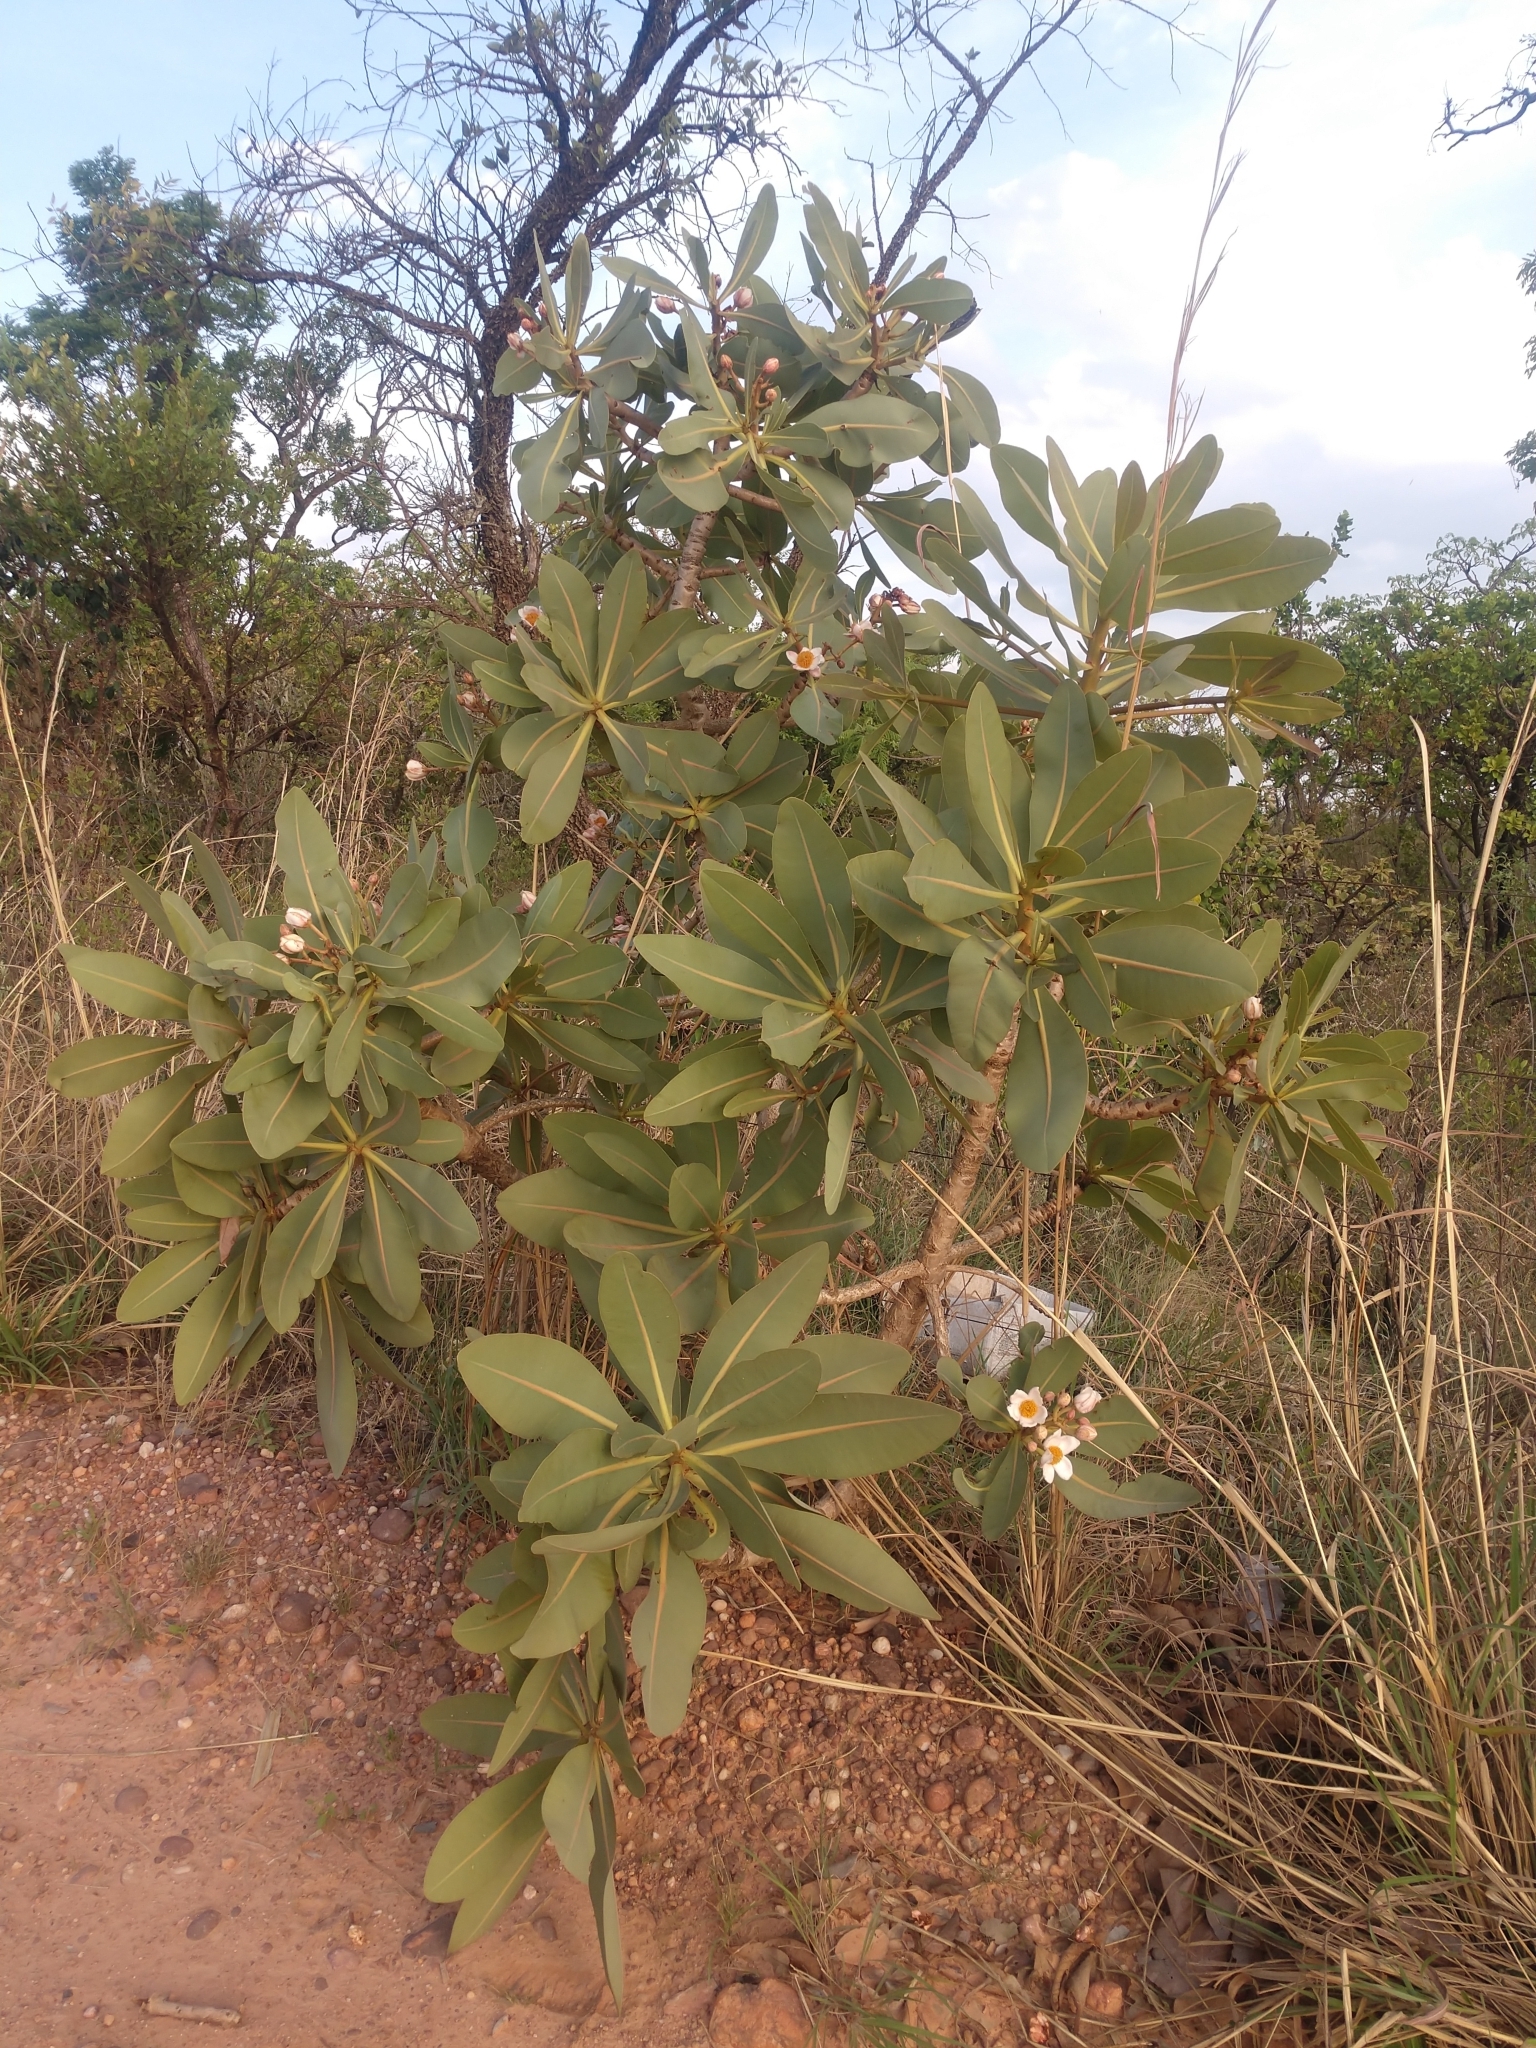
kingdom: Plantae
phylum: Tracheophyta
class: Magnoliopsida
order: Malpighiales
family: Calophyllaceae
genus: Kielmeyera
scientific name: Kielmeyera coriacea
